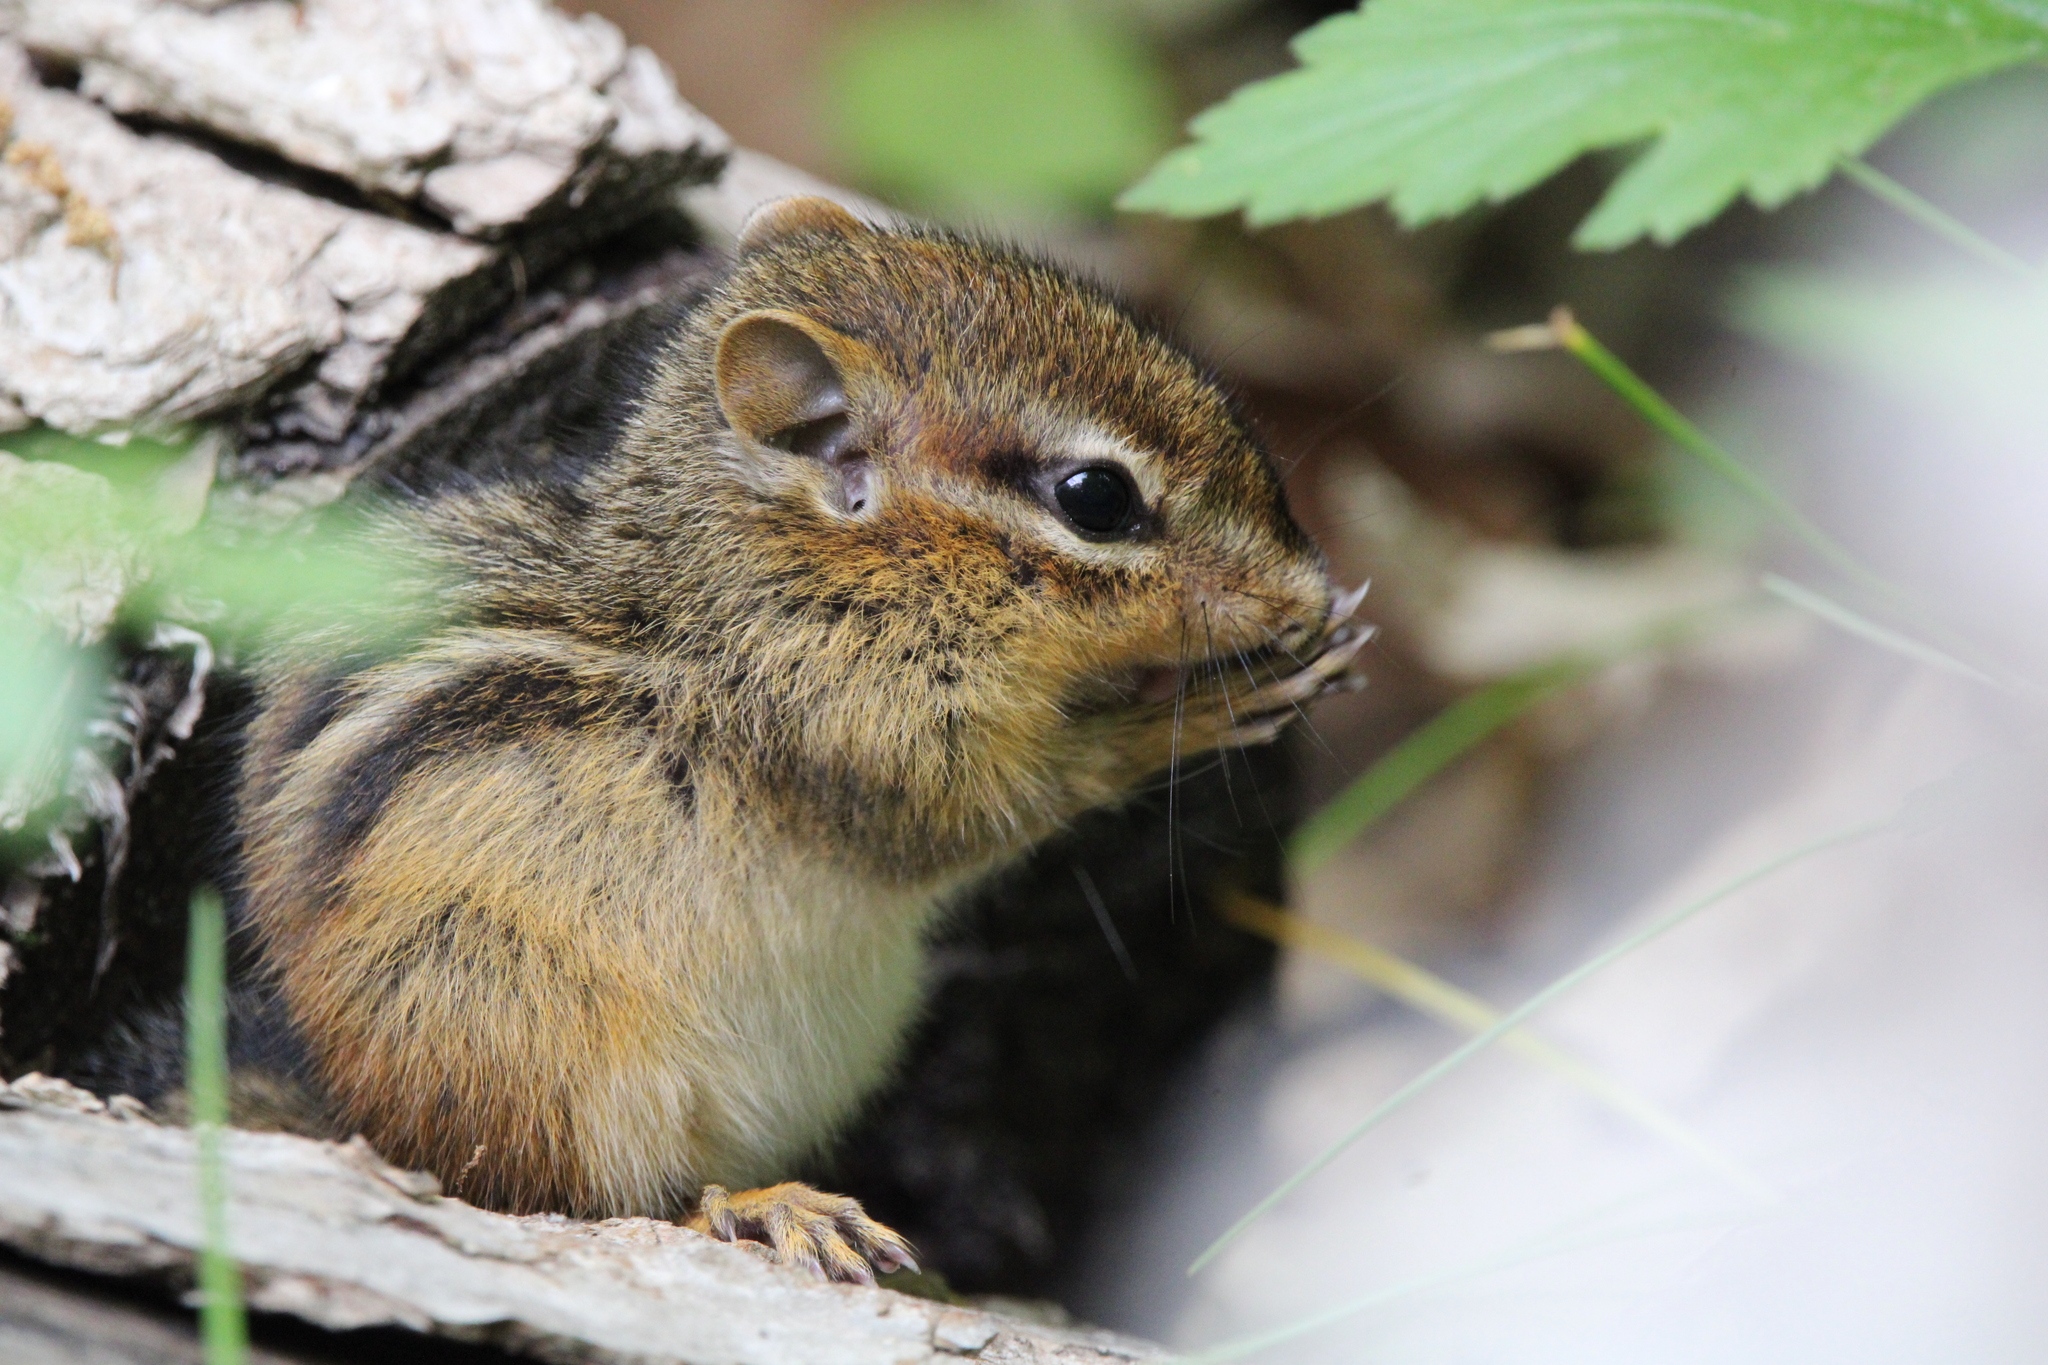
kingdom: Animalia
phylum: Chordata
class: Mammalia
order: Rodentia
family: Sciuridae
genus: Tamias
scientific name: Tamias striatus
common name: Eastern chipmunk
